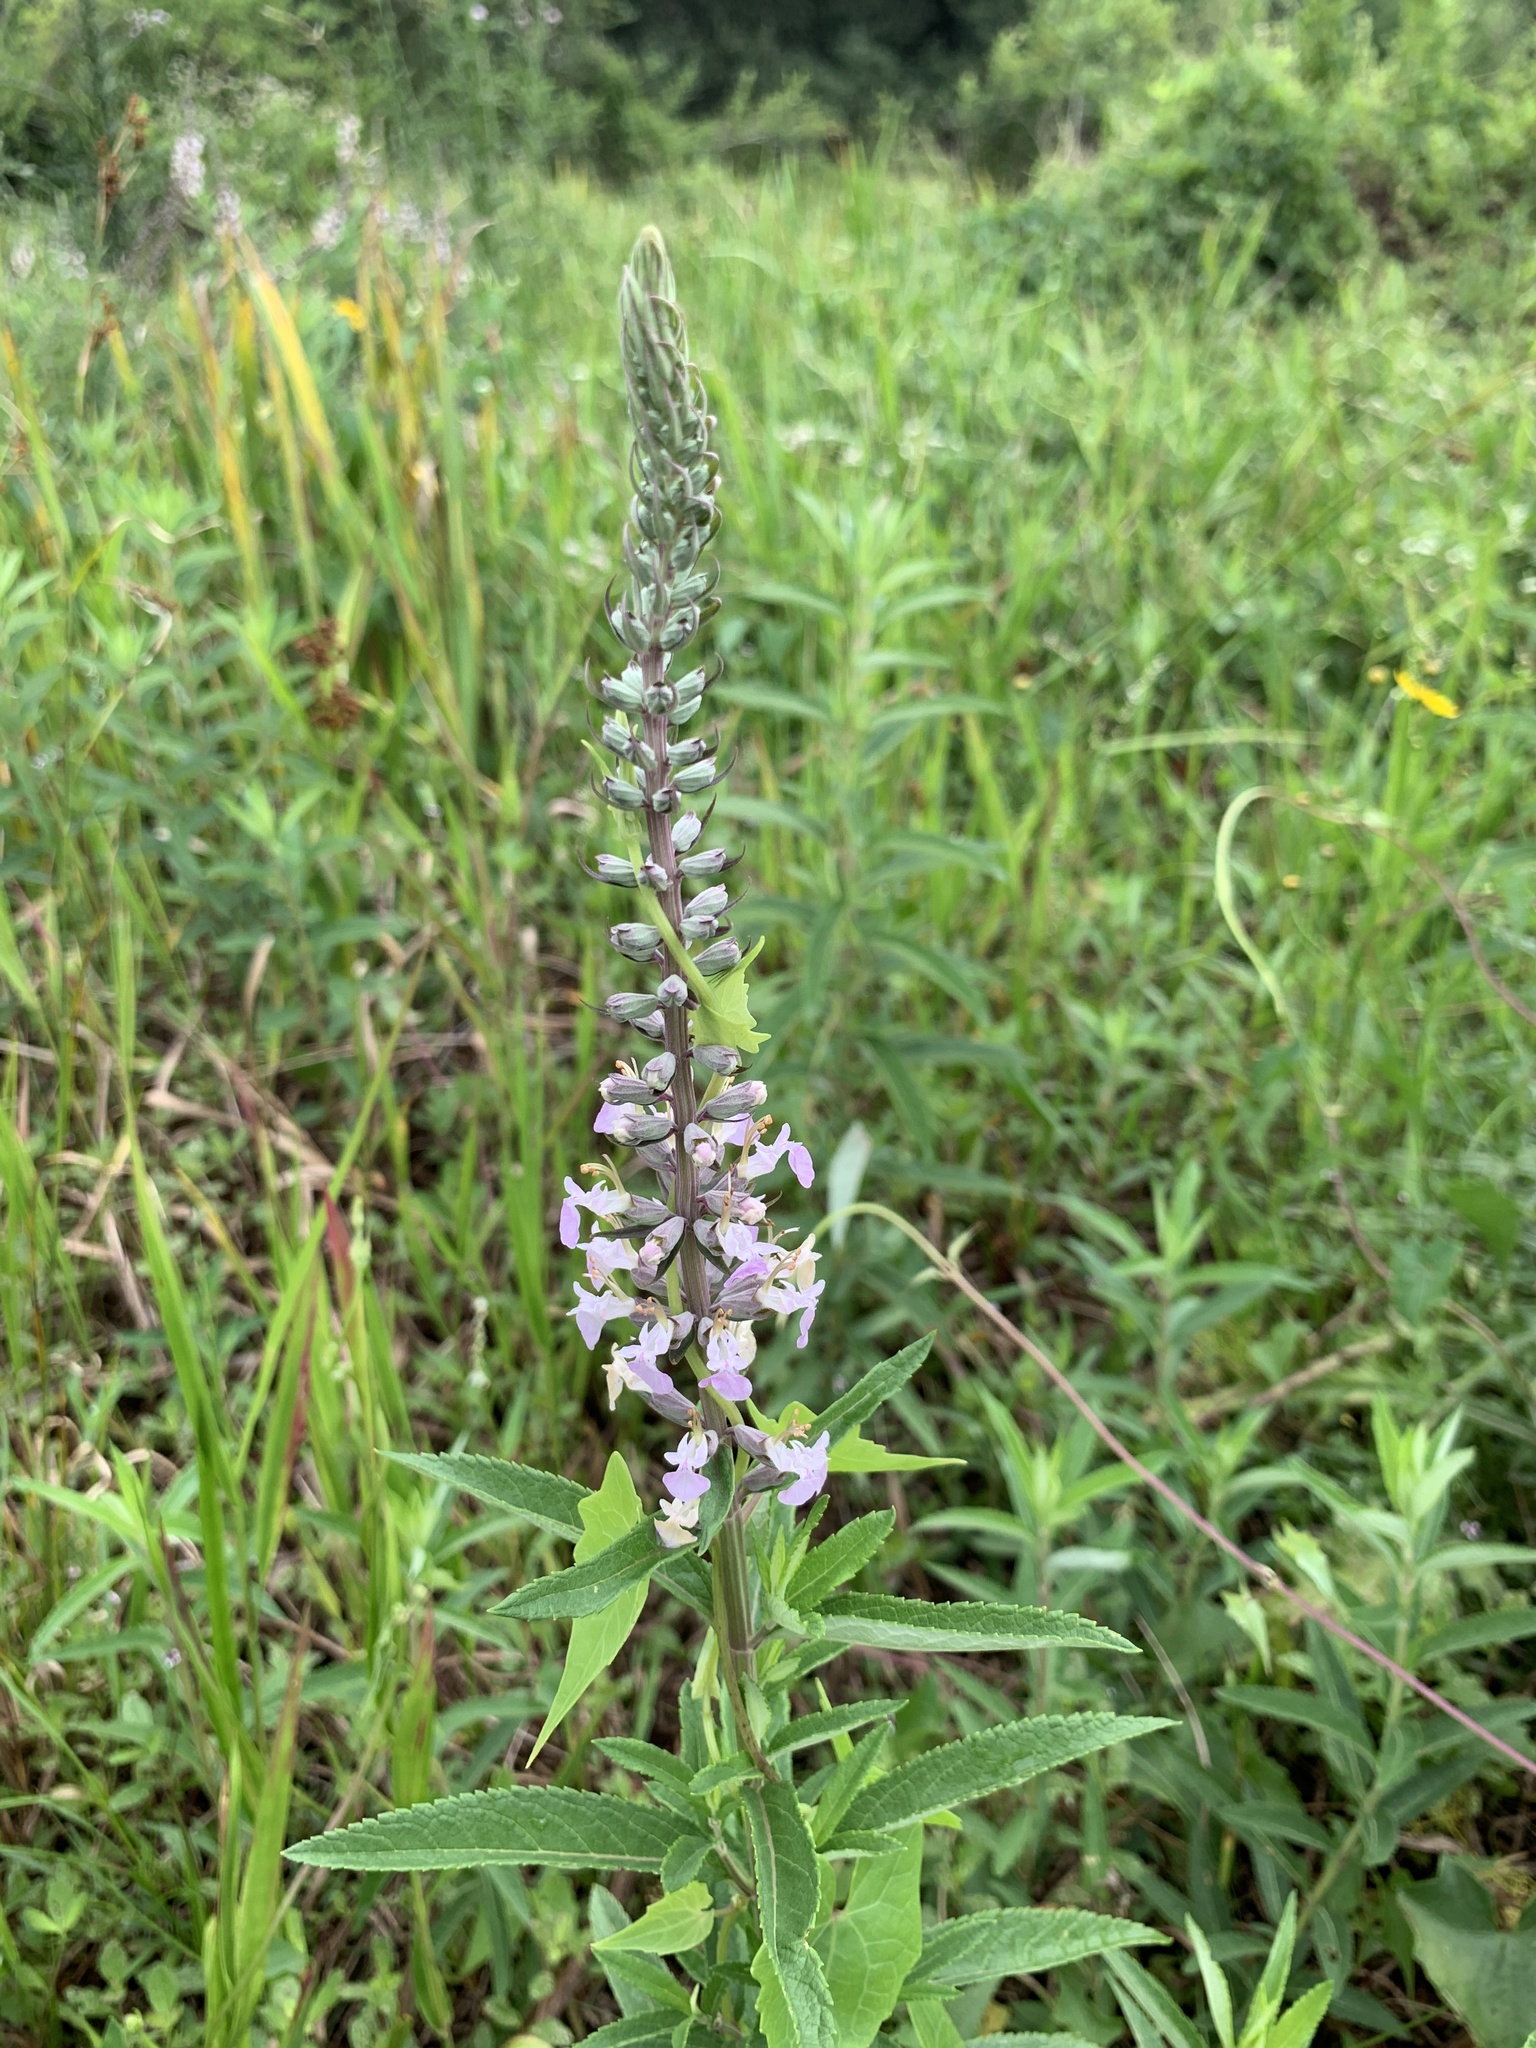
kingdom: Plantae
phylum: Tracheophyta
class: Magnoliopsida
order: Lamiales
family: Lamiaceae
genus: Teucrium
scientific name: Teucrium canadense
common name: American germander
